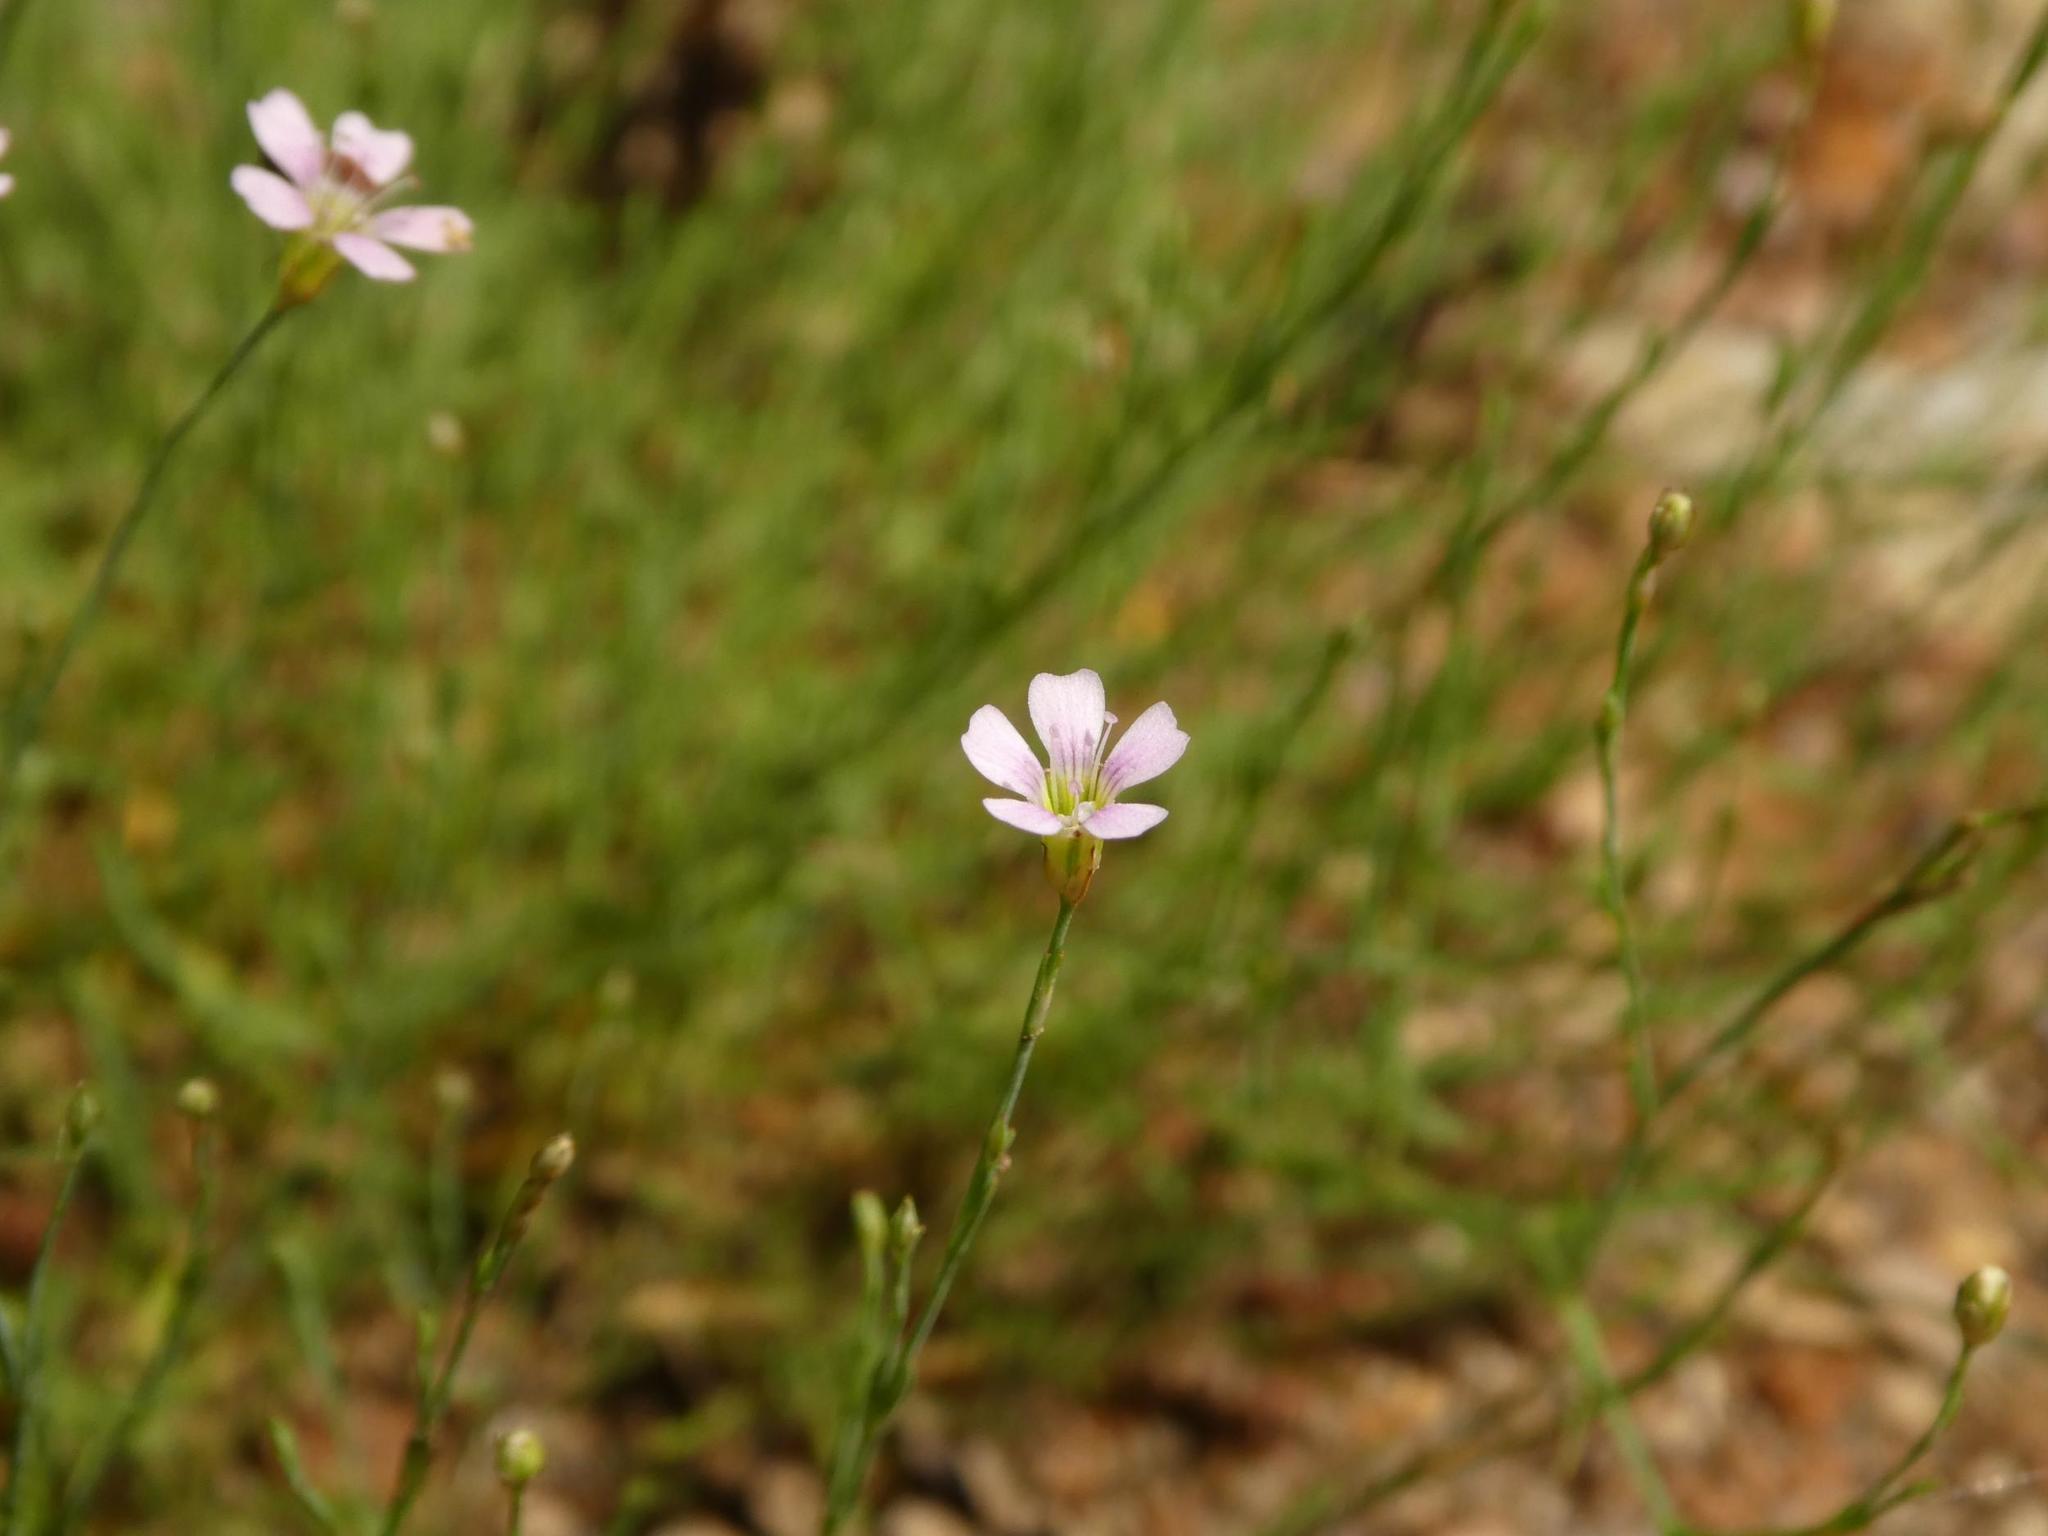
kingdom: Plantae
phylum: Tracheophyta
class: Magnoliopsida
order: Caryophyllales
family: Caryophyllaceae
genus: Petrorhagia
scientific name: Petrorhagia saxifraga
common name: Tunicflower
